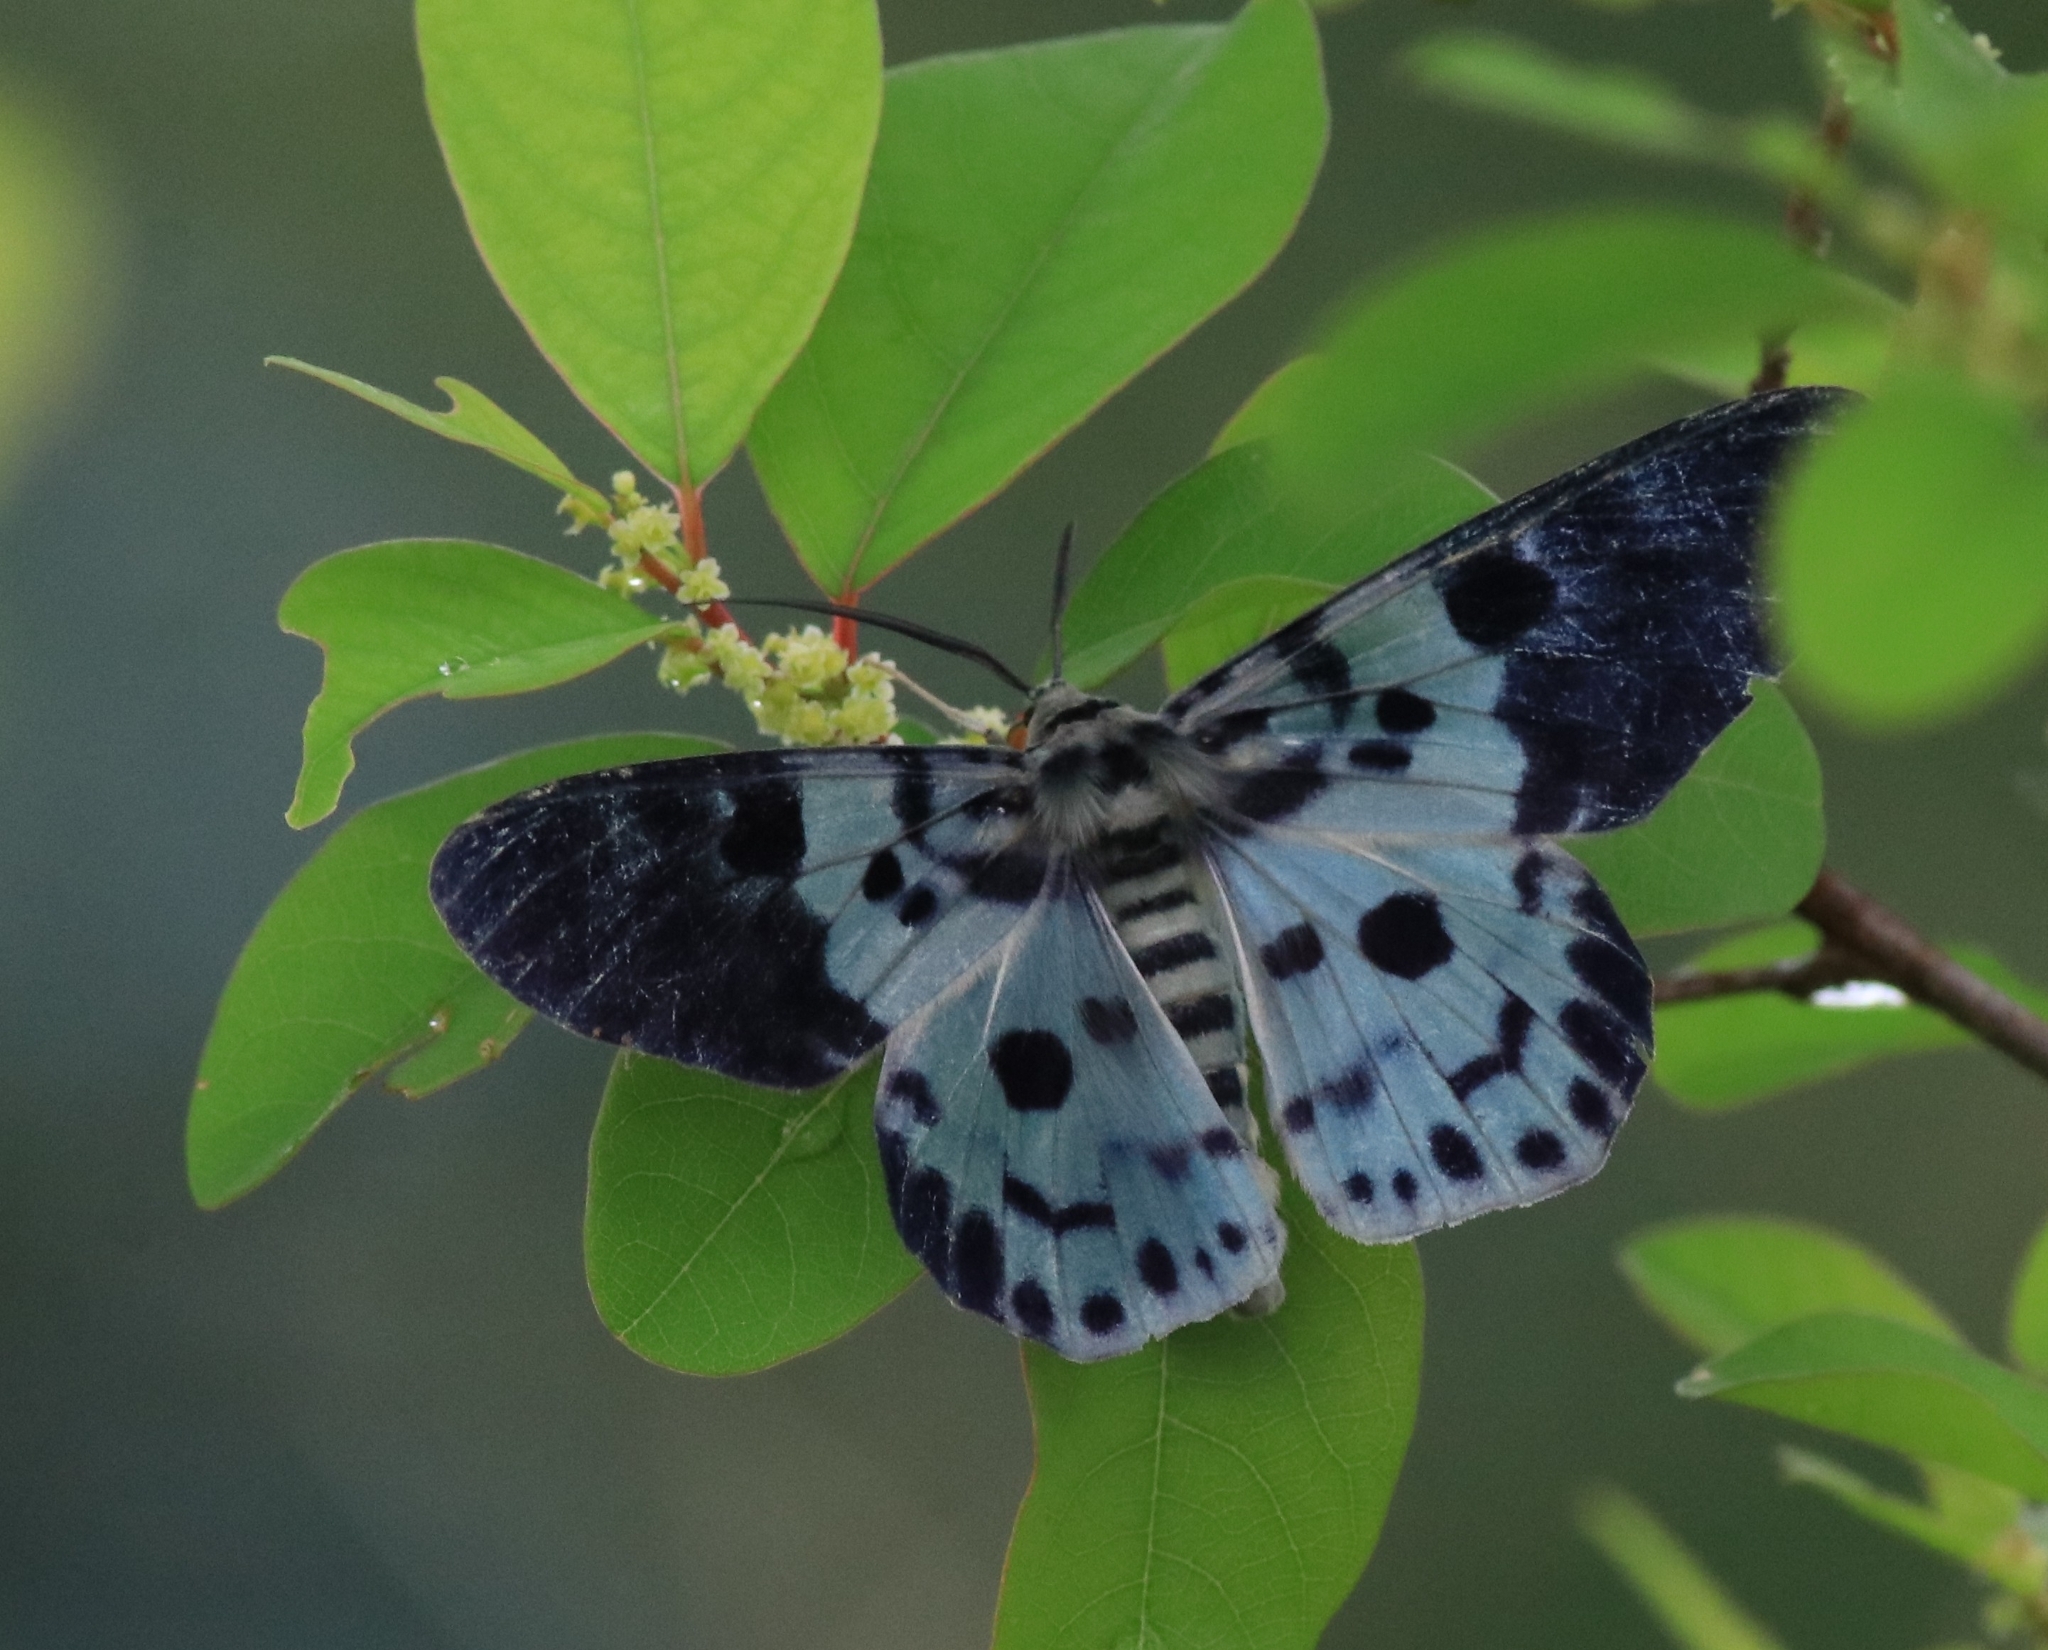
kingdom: Animalia
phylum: Arthropoda
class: Insecta
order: Lepidoptera
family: Geometridae
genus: Dysphania
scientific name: Dysphania percota
